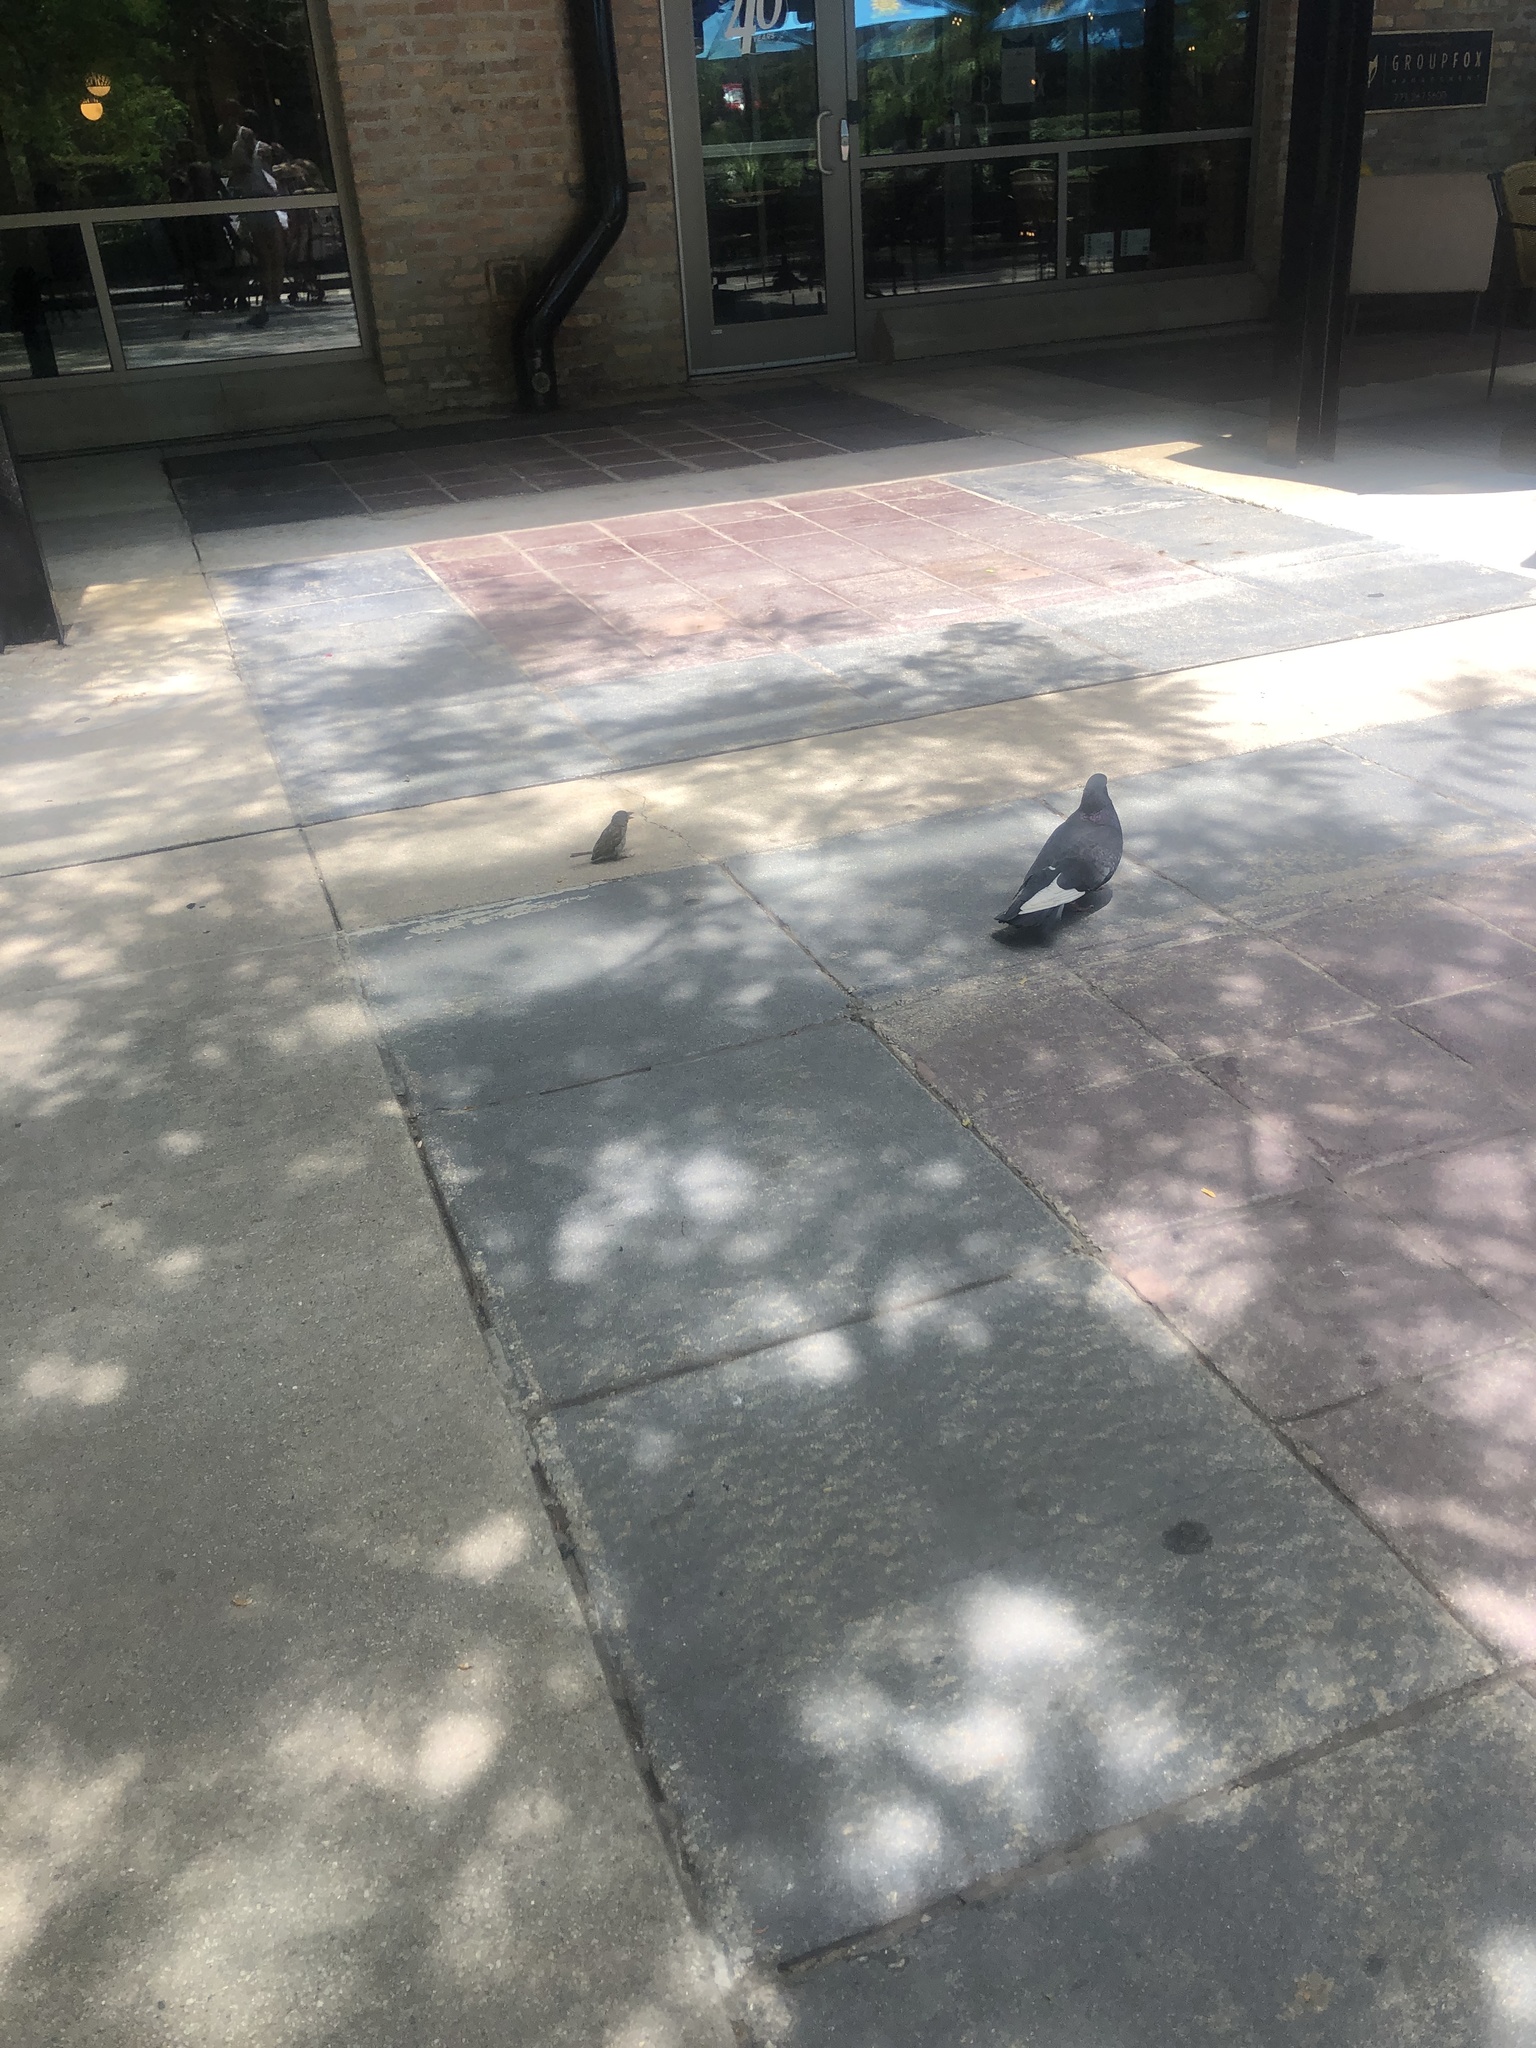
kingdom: Animalia
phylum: Chordata
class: Aves
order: Columbiformes
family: Columbidae
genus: Columba
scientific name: Columba livia
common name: Rock pigeon
